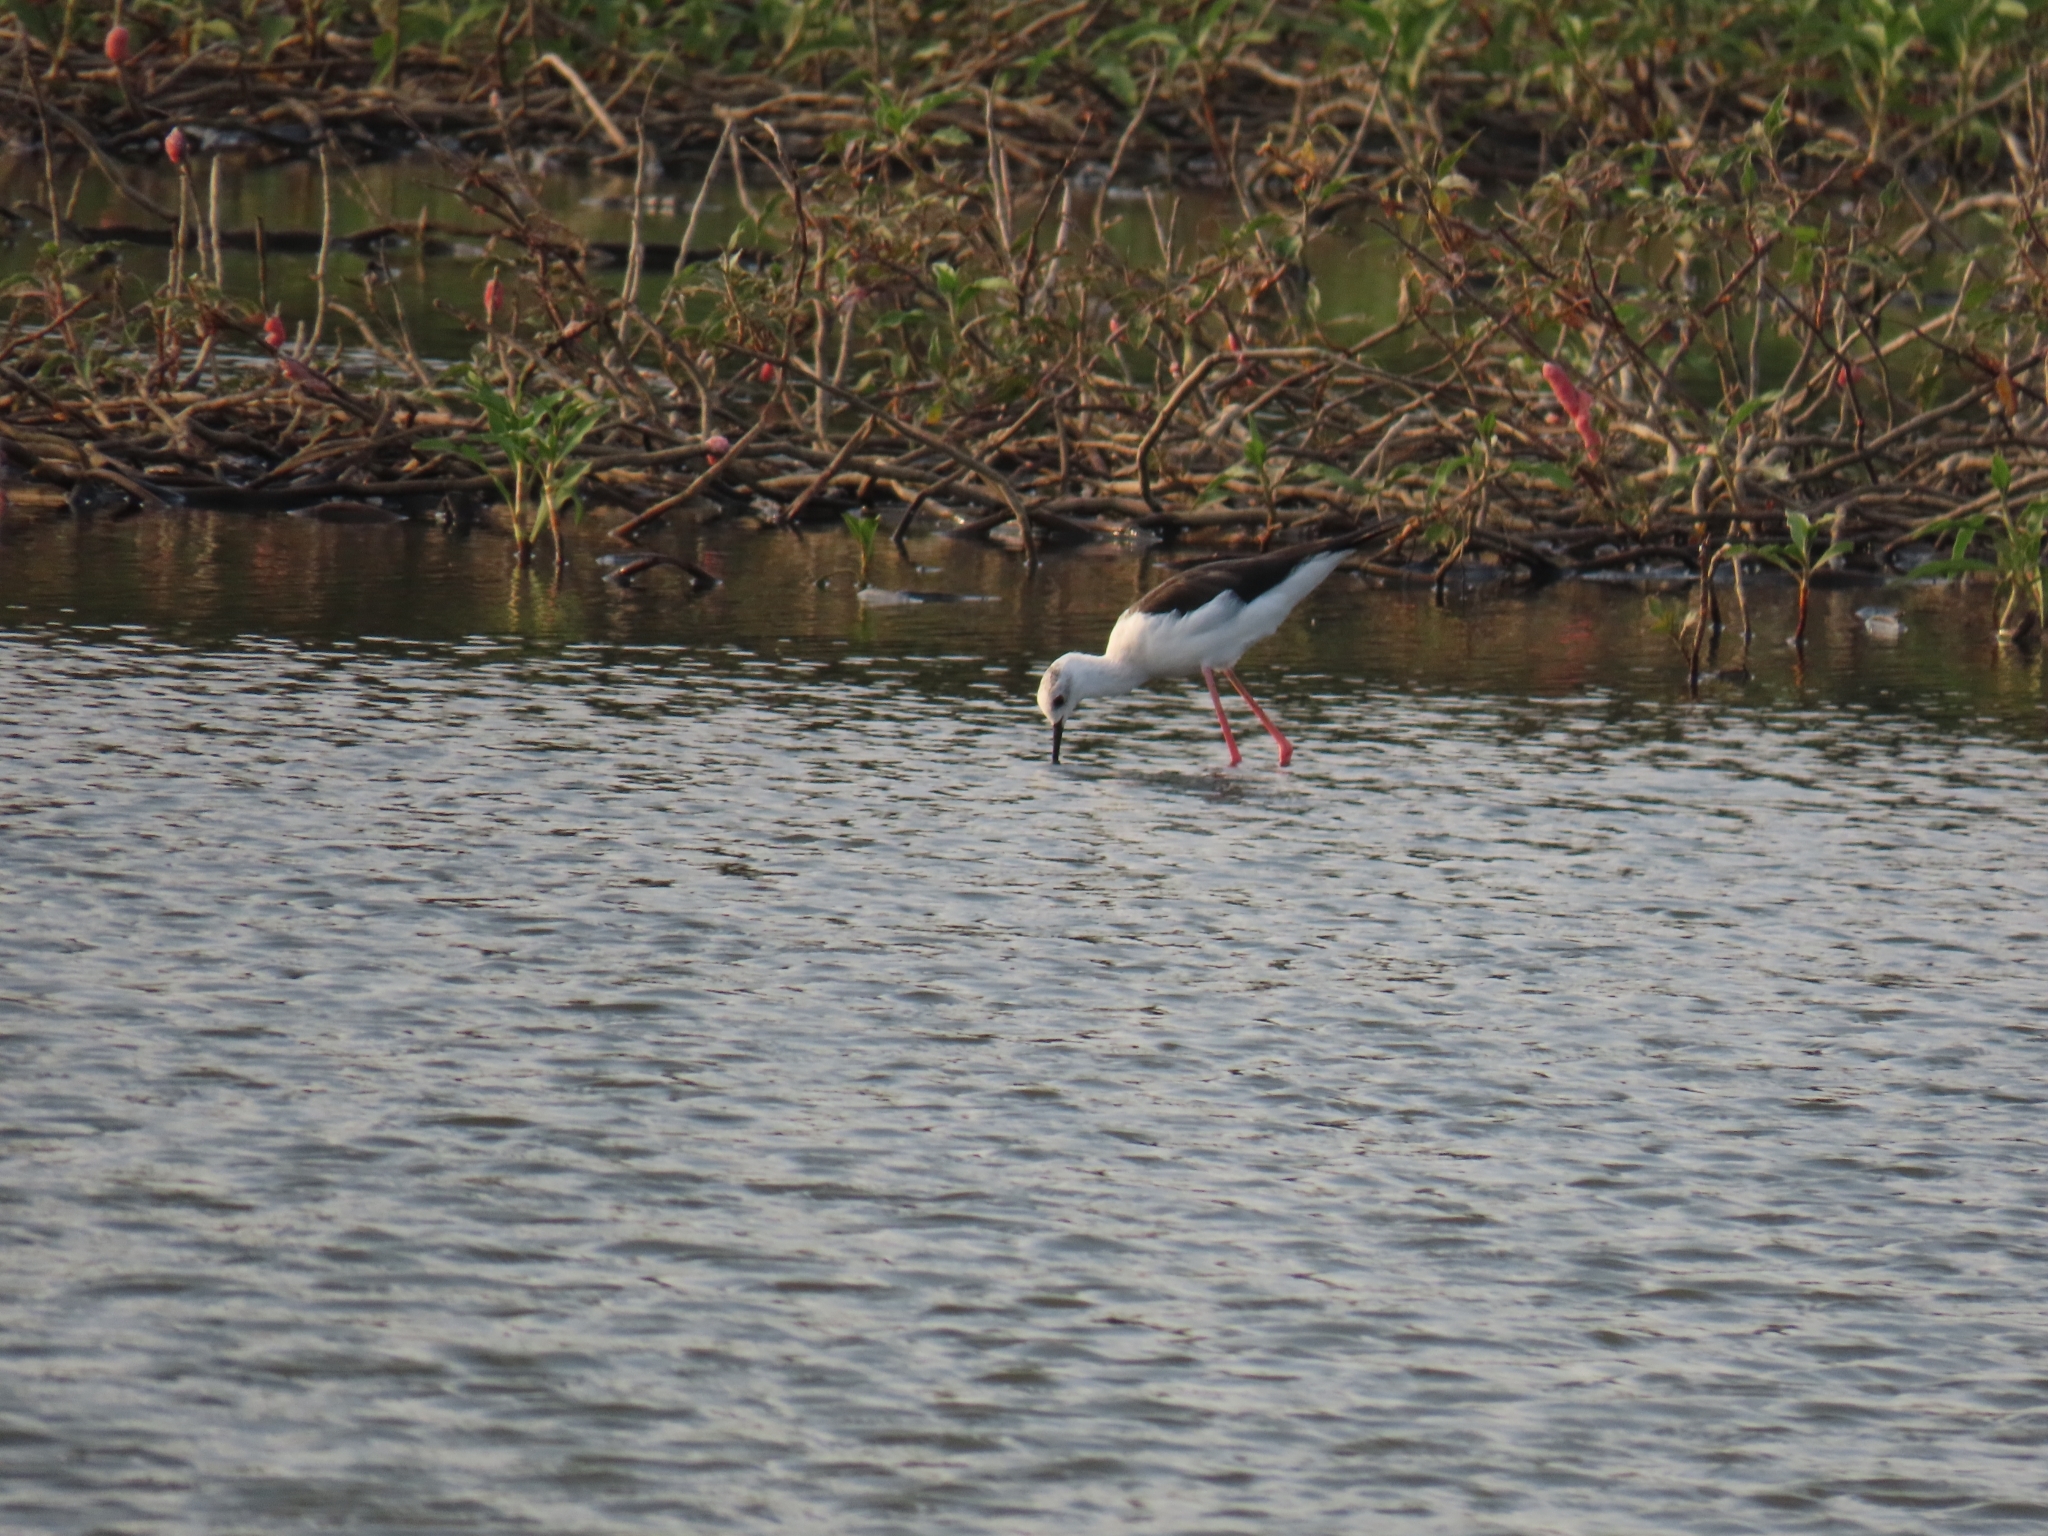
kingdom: Animalia
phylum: Chordata
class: Aves
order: Charadriiformes
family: Recurvirostridae
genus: Himantopus
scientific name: Himantopus himantopus
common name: Black-winged stilt
